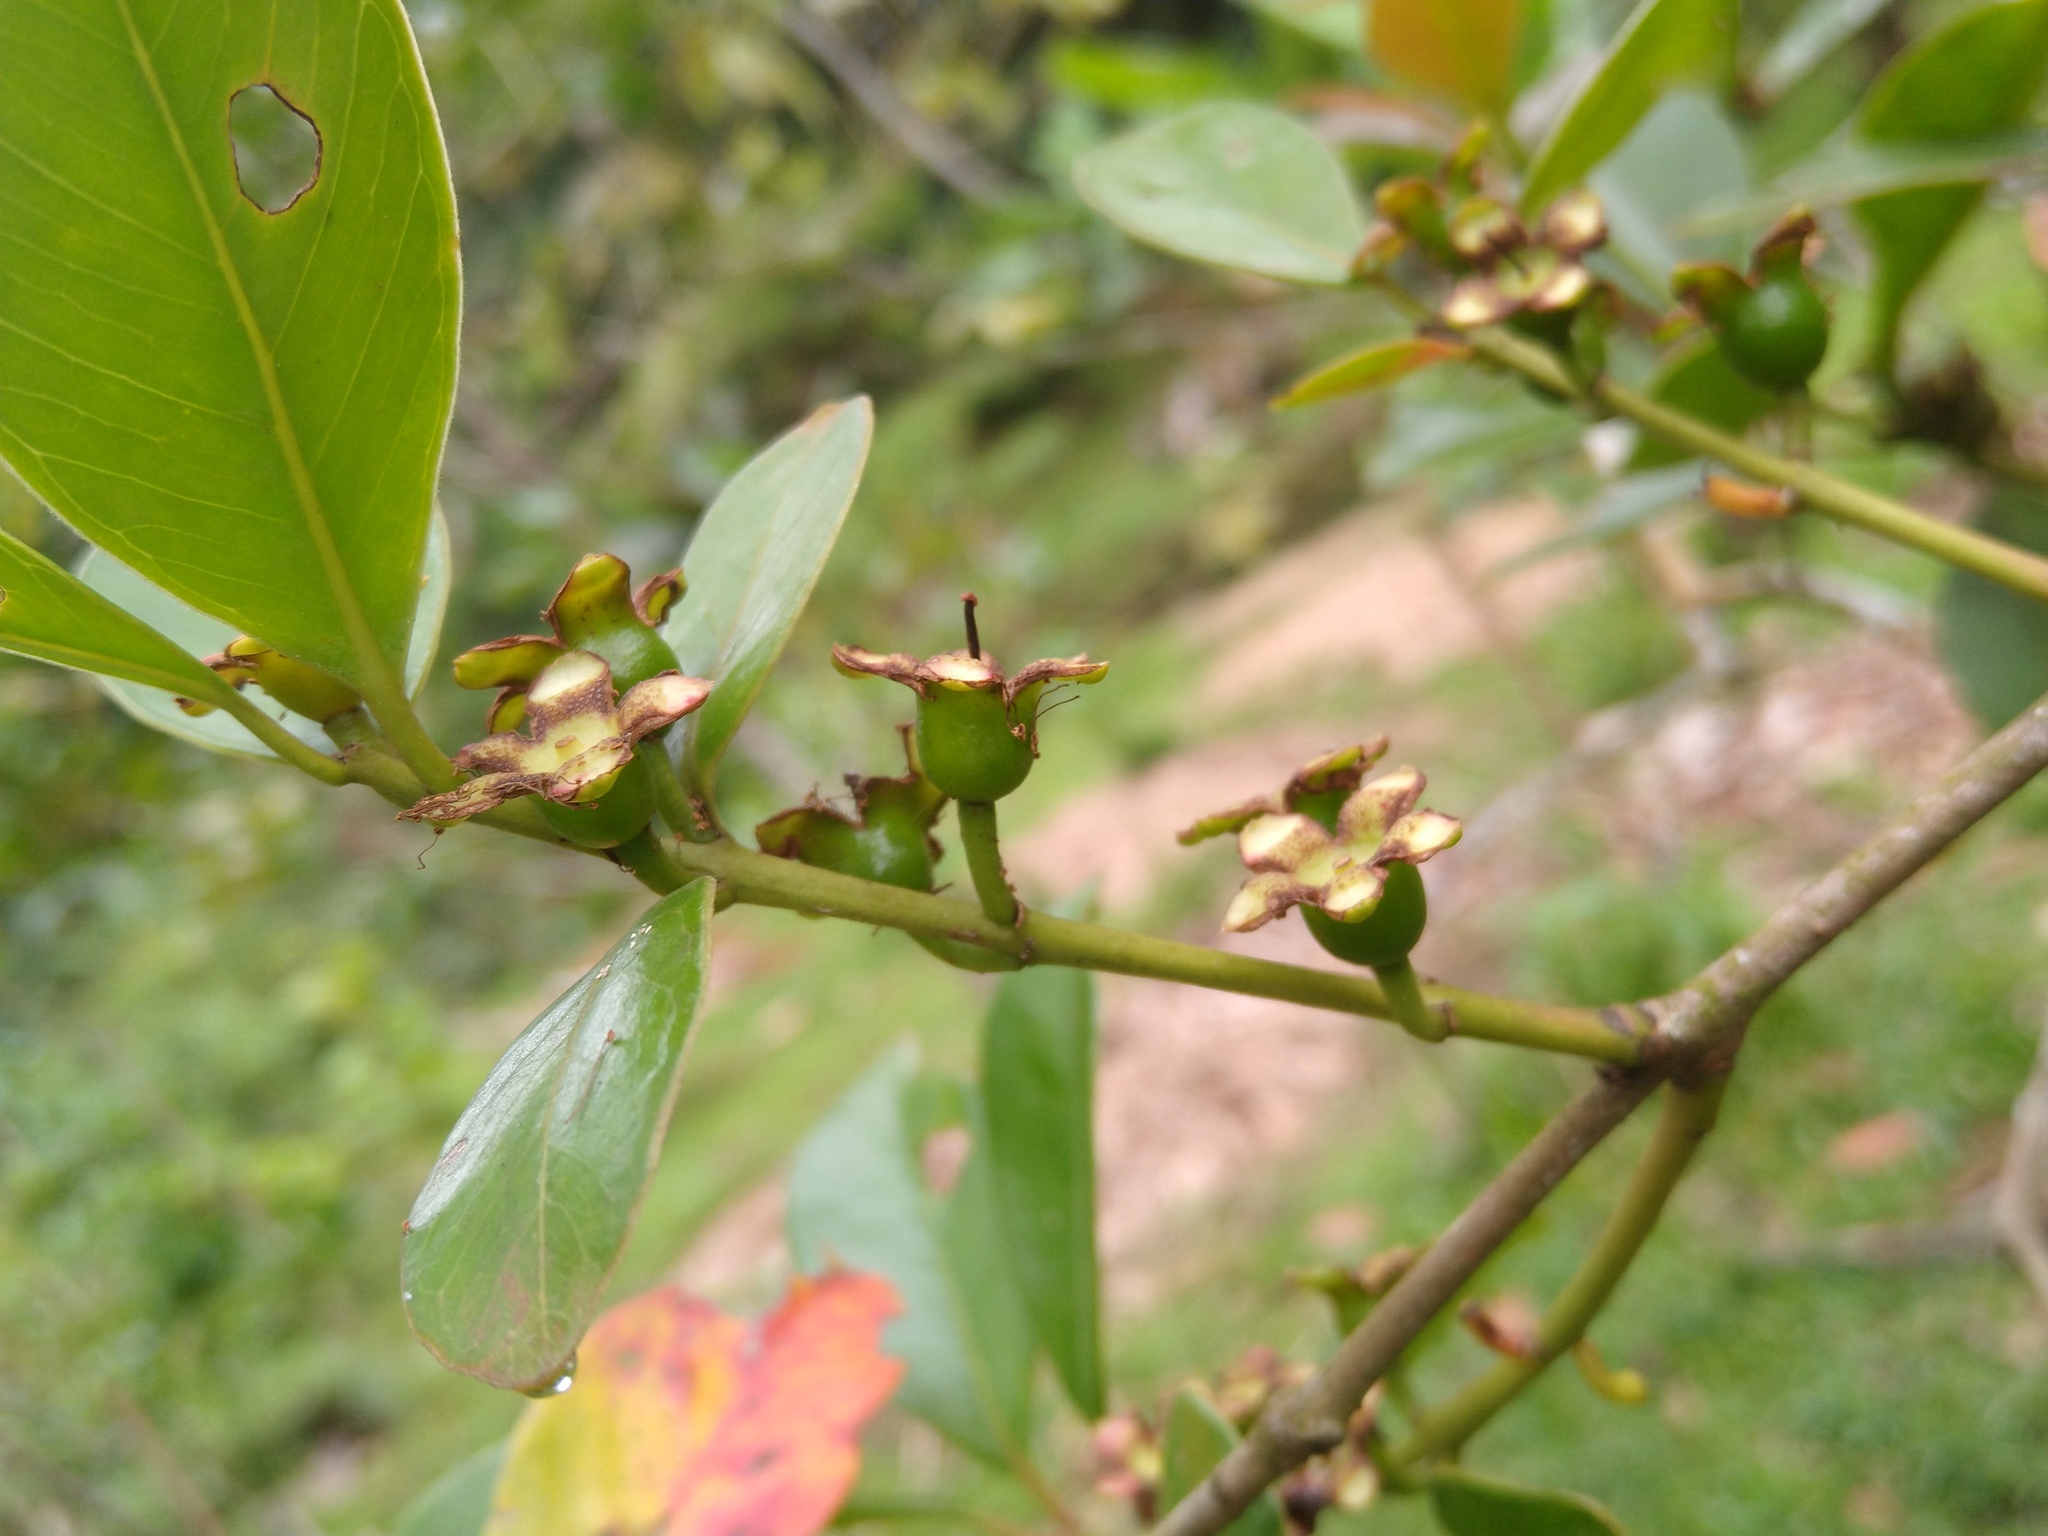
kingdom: Plantae
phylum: Tracheophyta
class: Magnoliopsida
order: Myrtales
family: Myrtaceae
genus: Psidium
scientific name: Psidium cattleianum
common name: Strawberry guava
